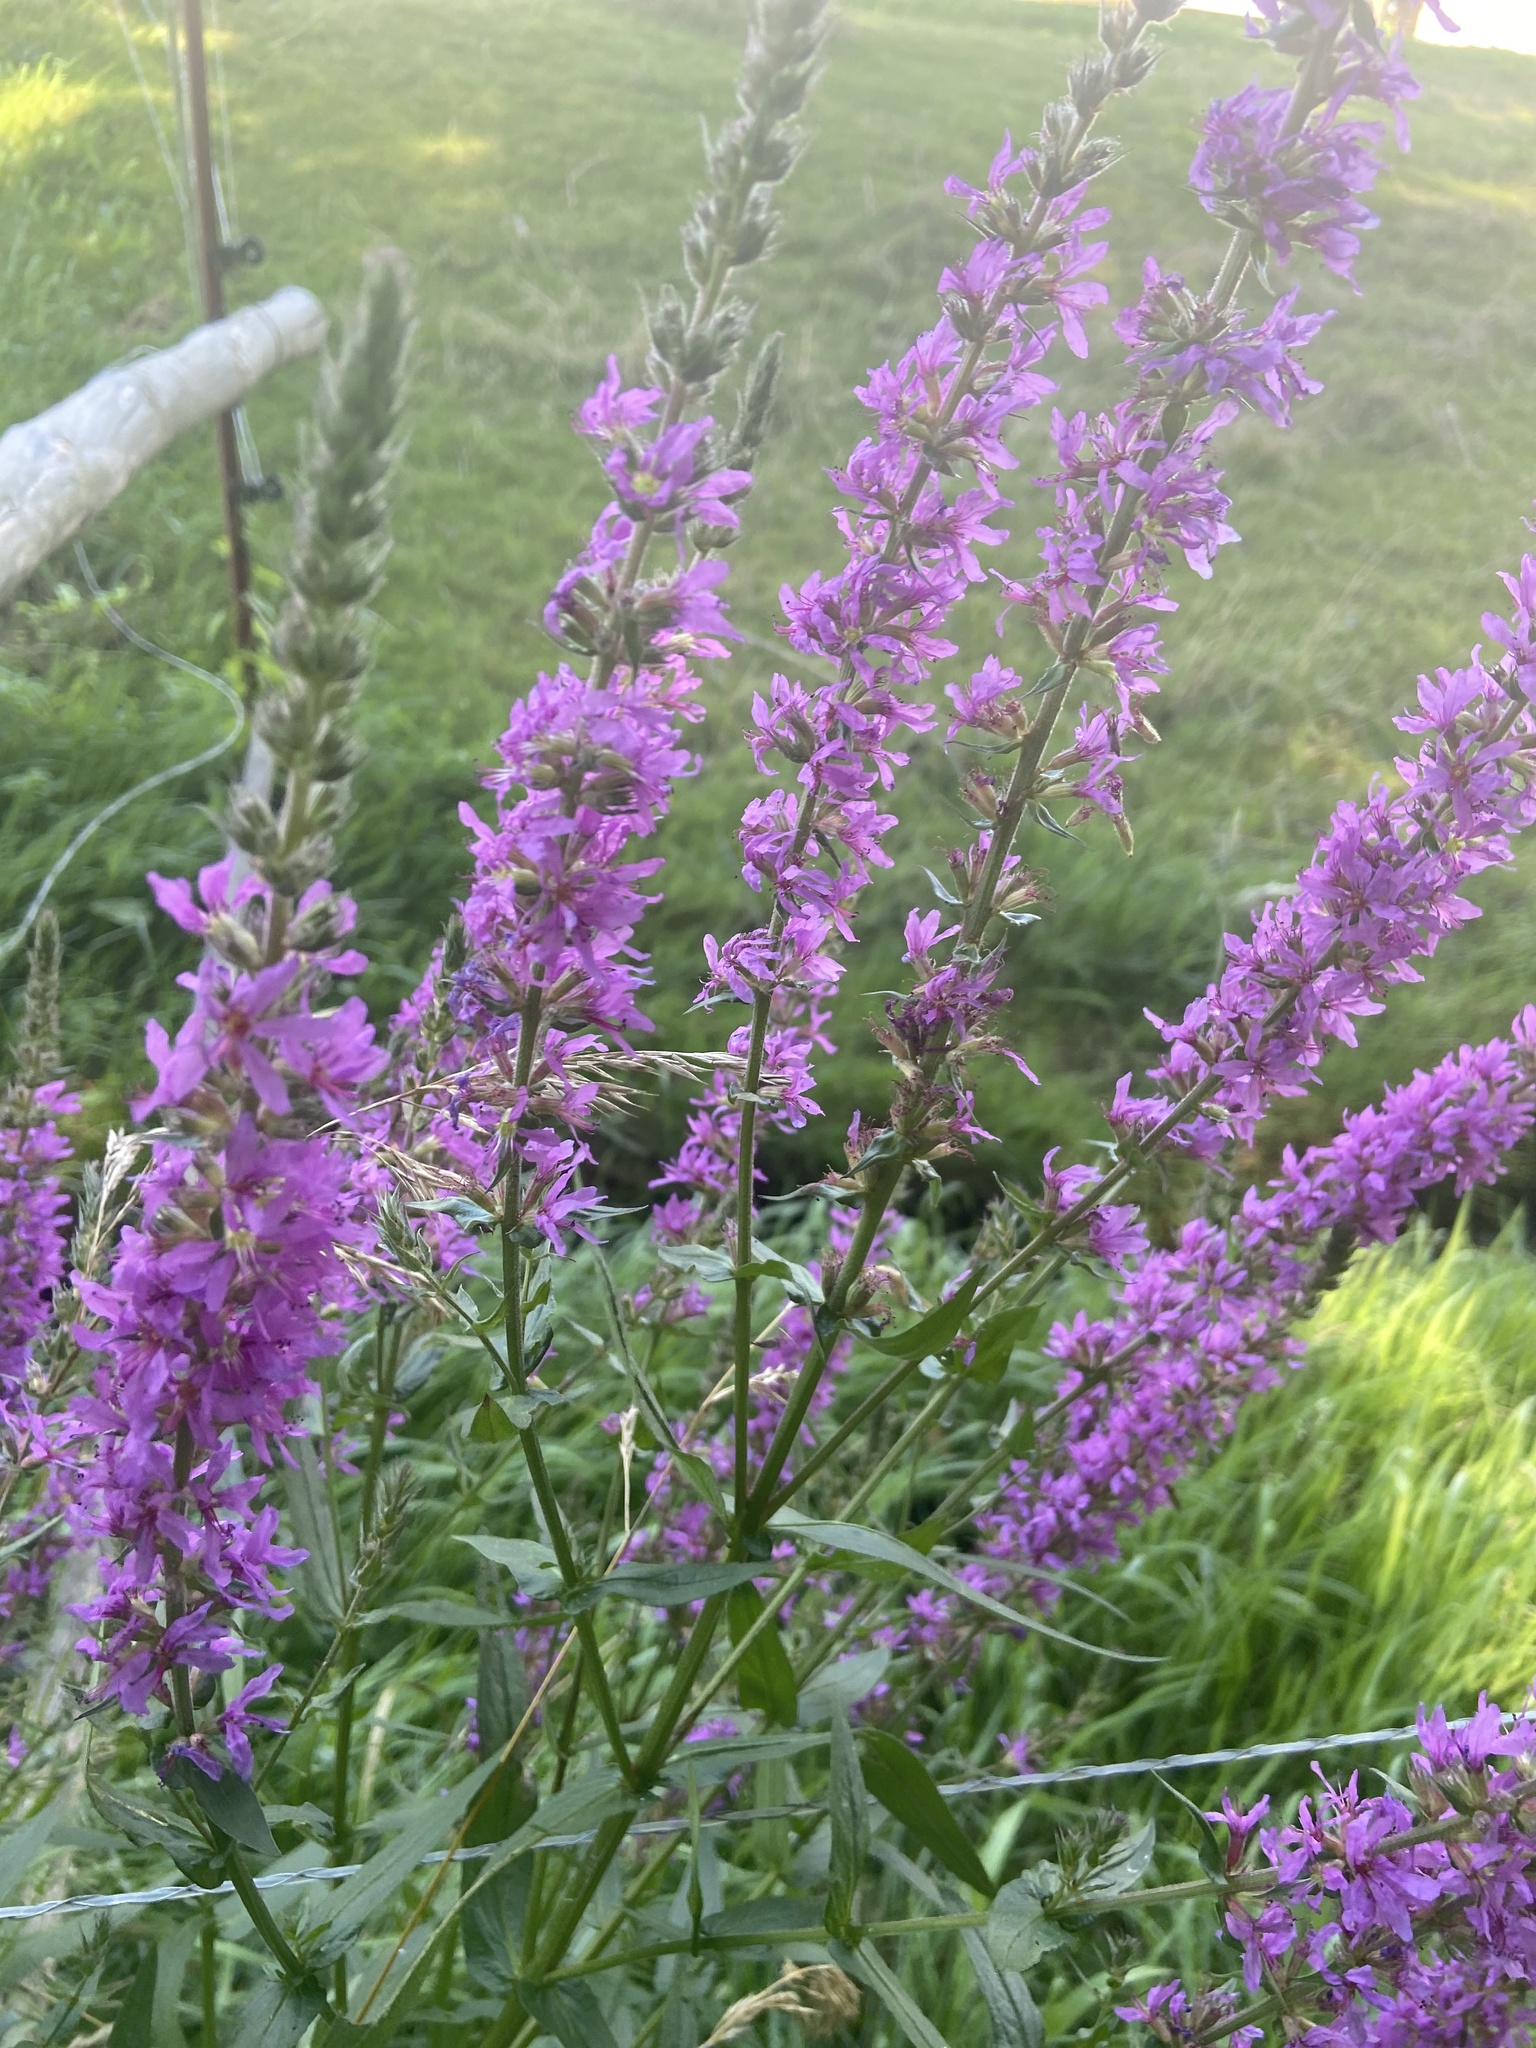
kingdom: Plantae
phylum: Tracheophyta
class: Magnoliopsida
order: Myrtales
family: Lythraceae
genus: Lythrum
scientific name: Lythrum salicaria
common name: Purple loosestrife
